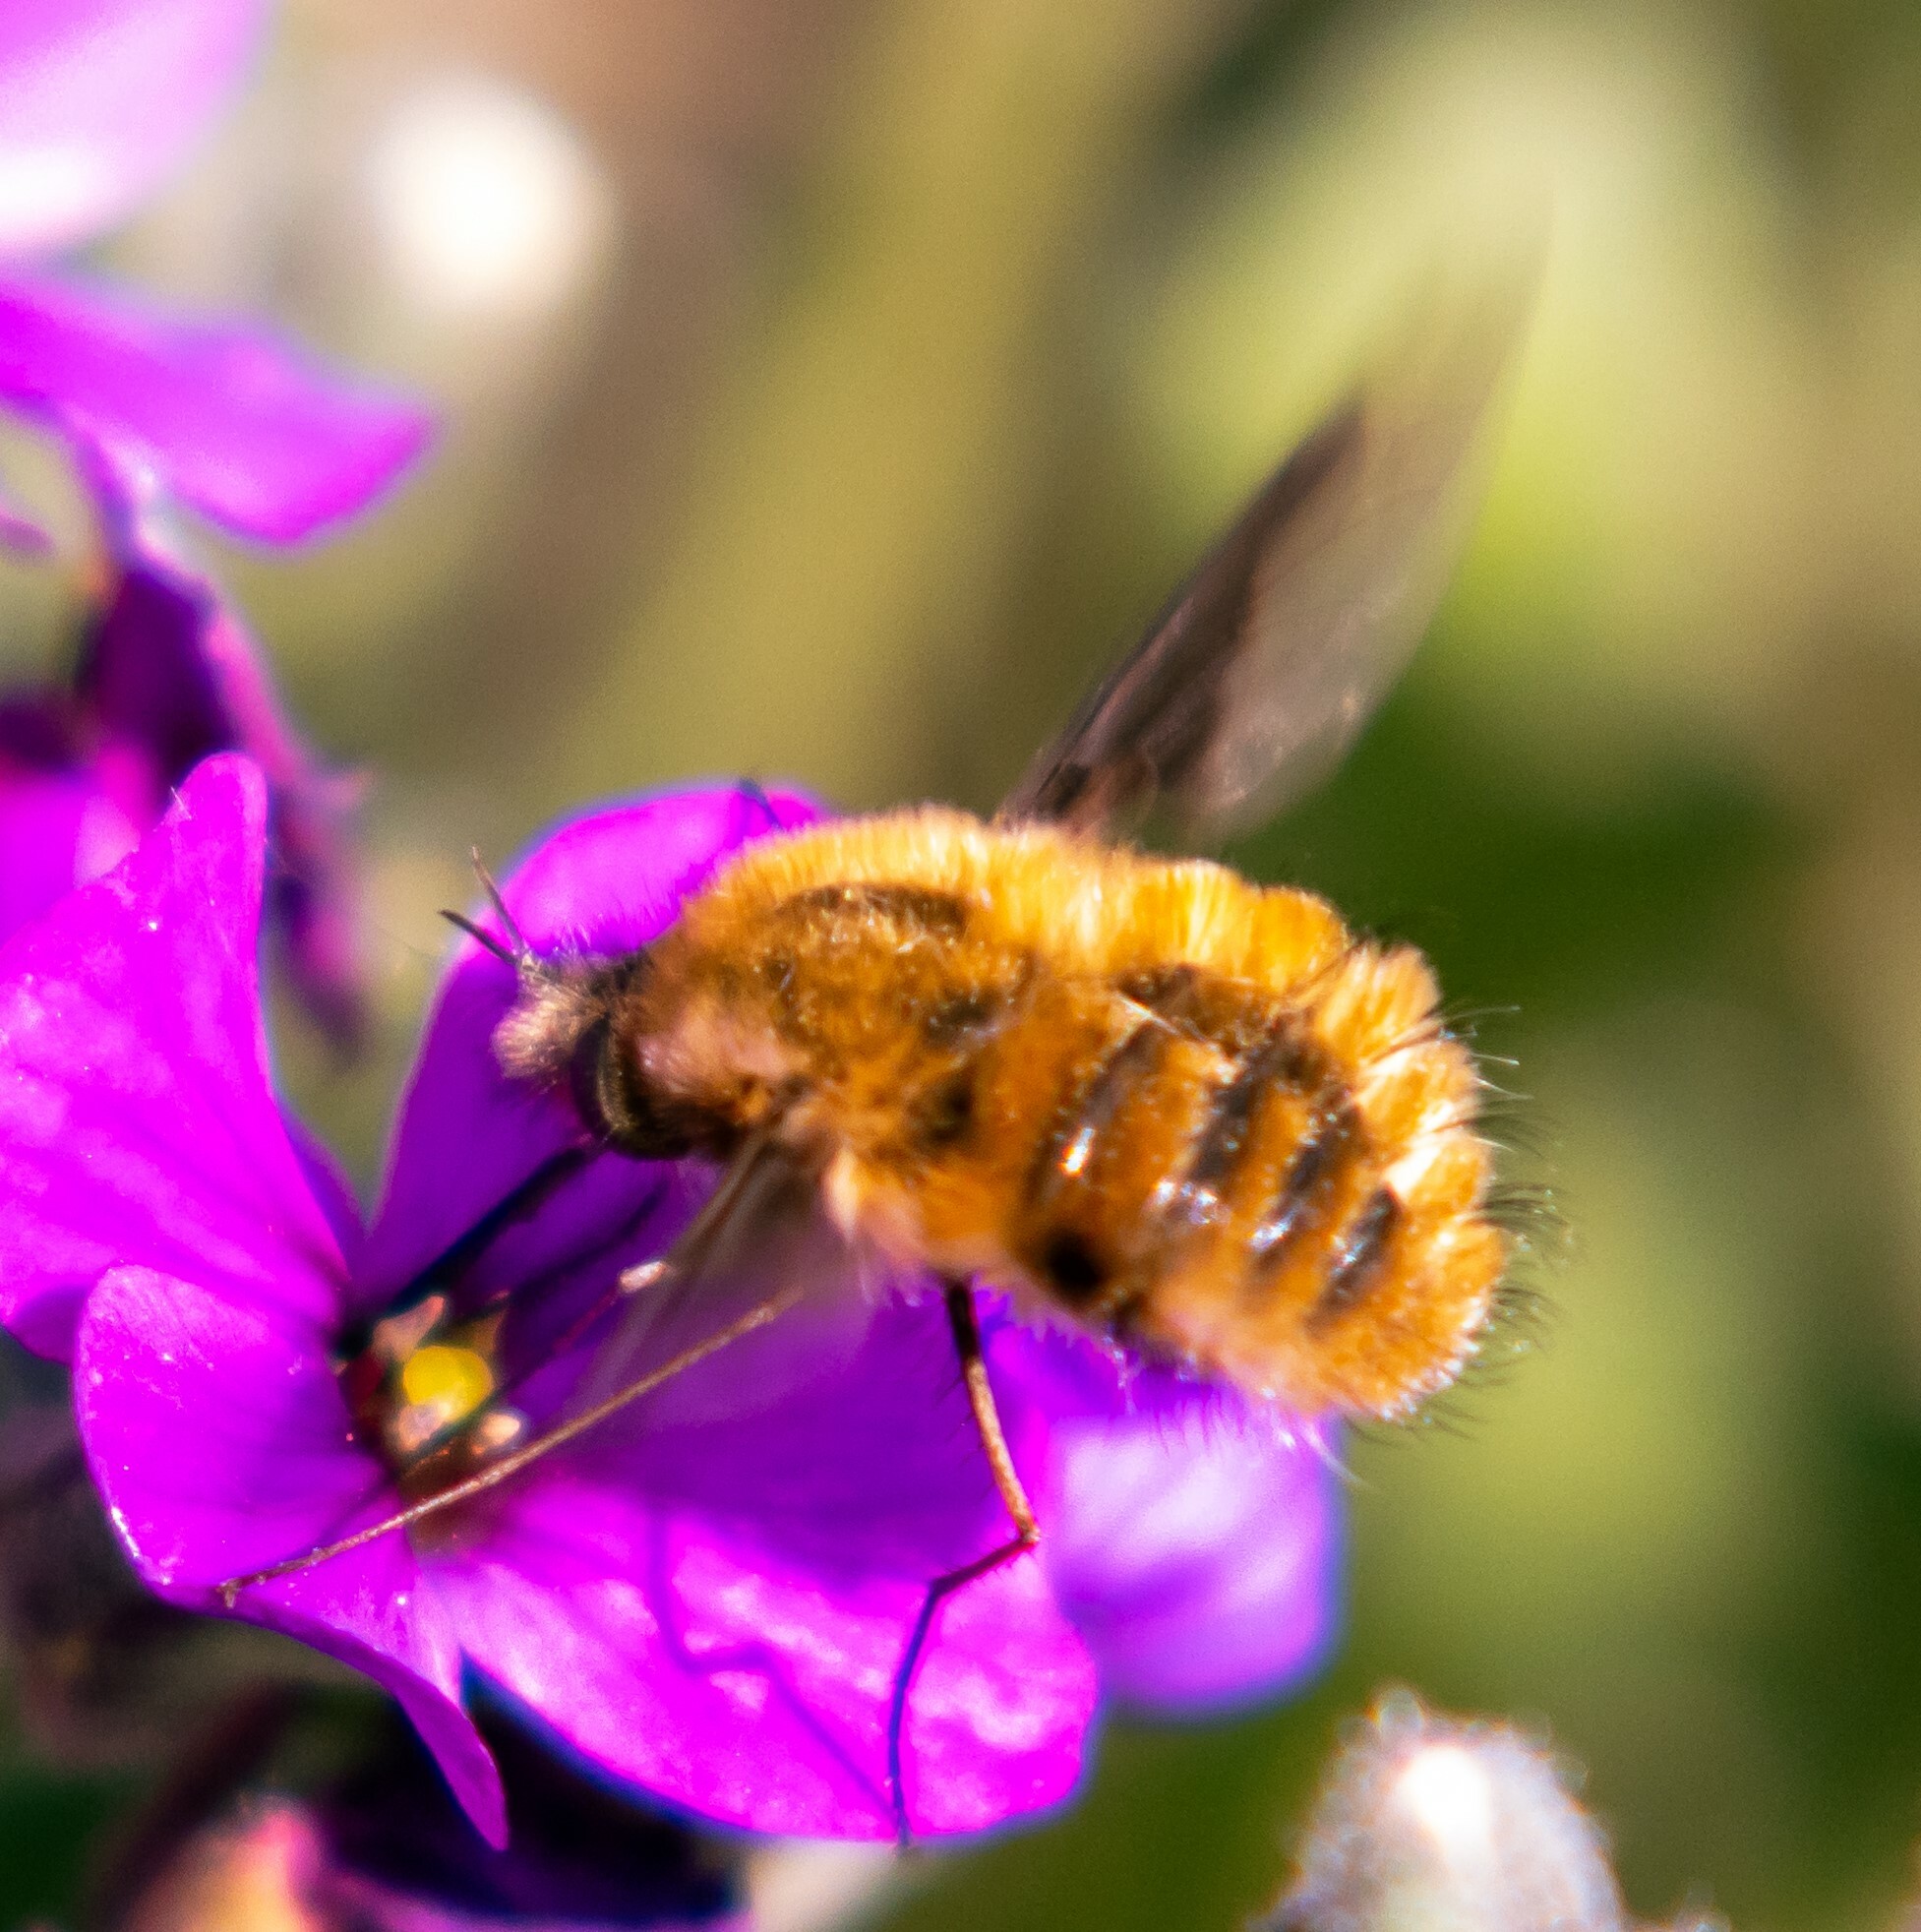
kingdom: Animalia
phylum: Arthropoda
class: Insecta
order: Diptera
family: Bombyliidae
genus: Bombylius
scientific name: Bombylius major
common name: Bee fly
